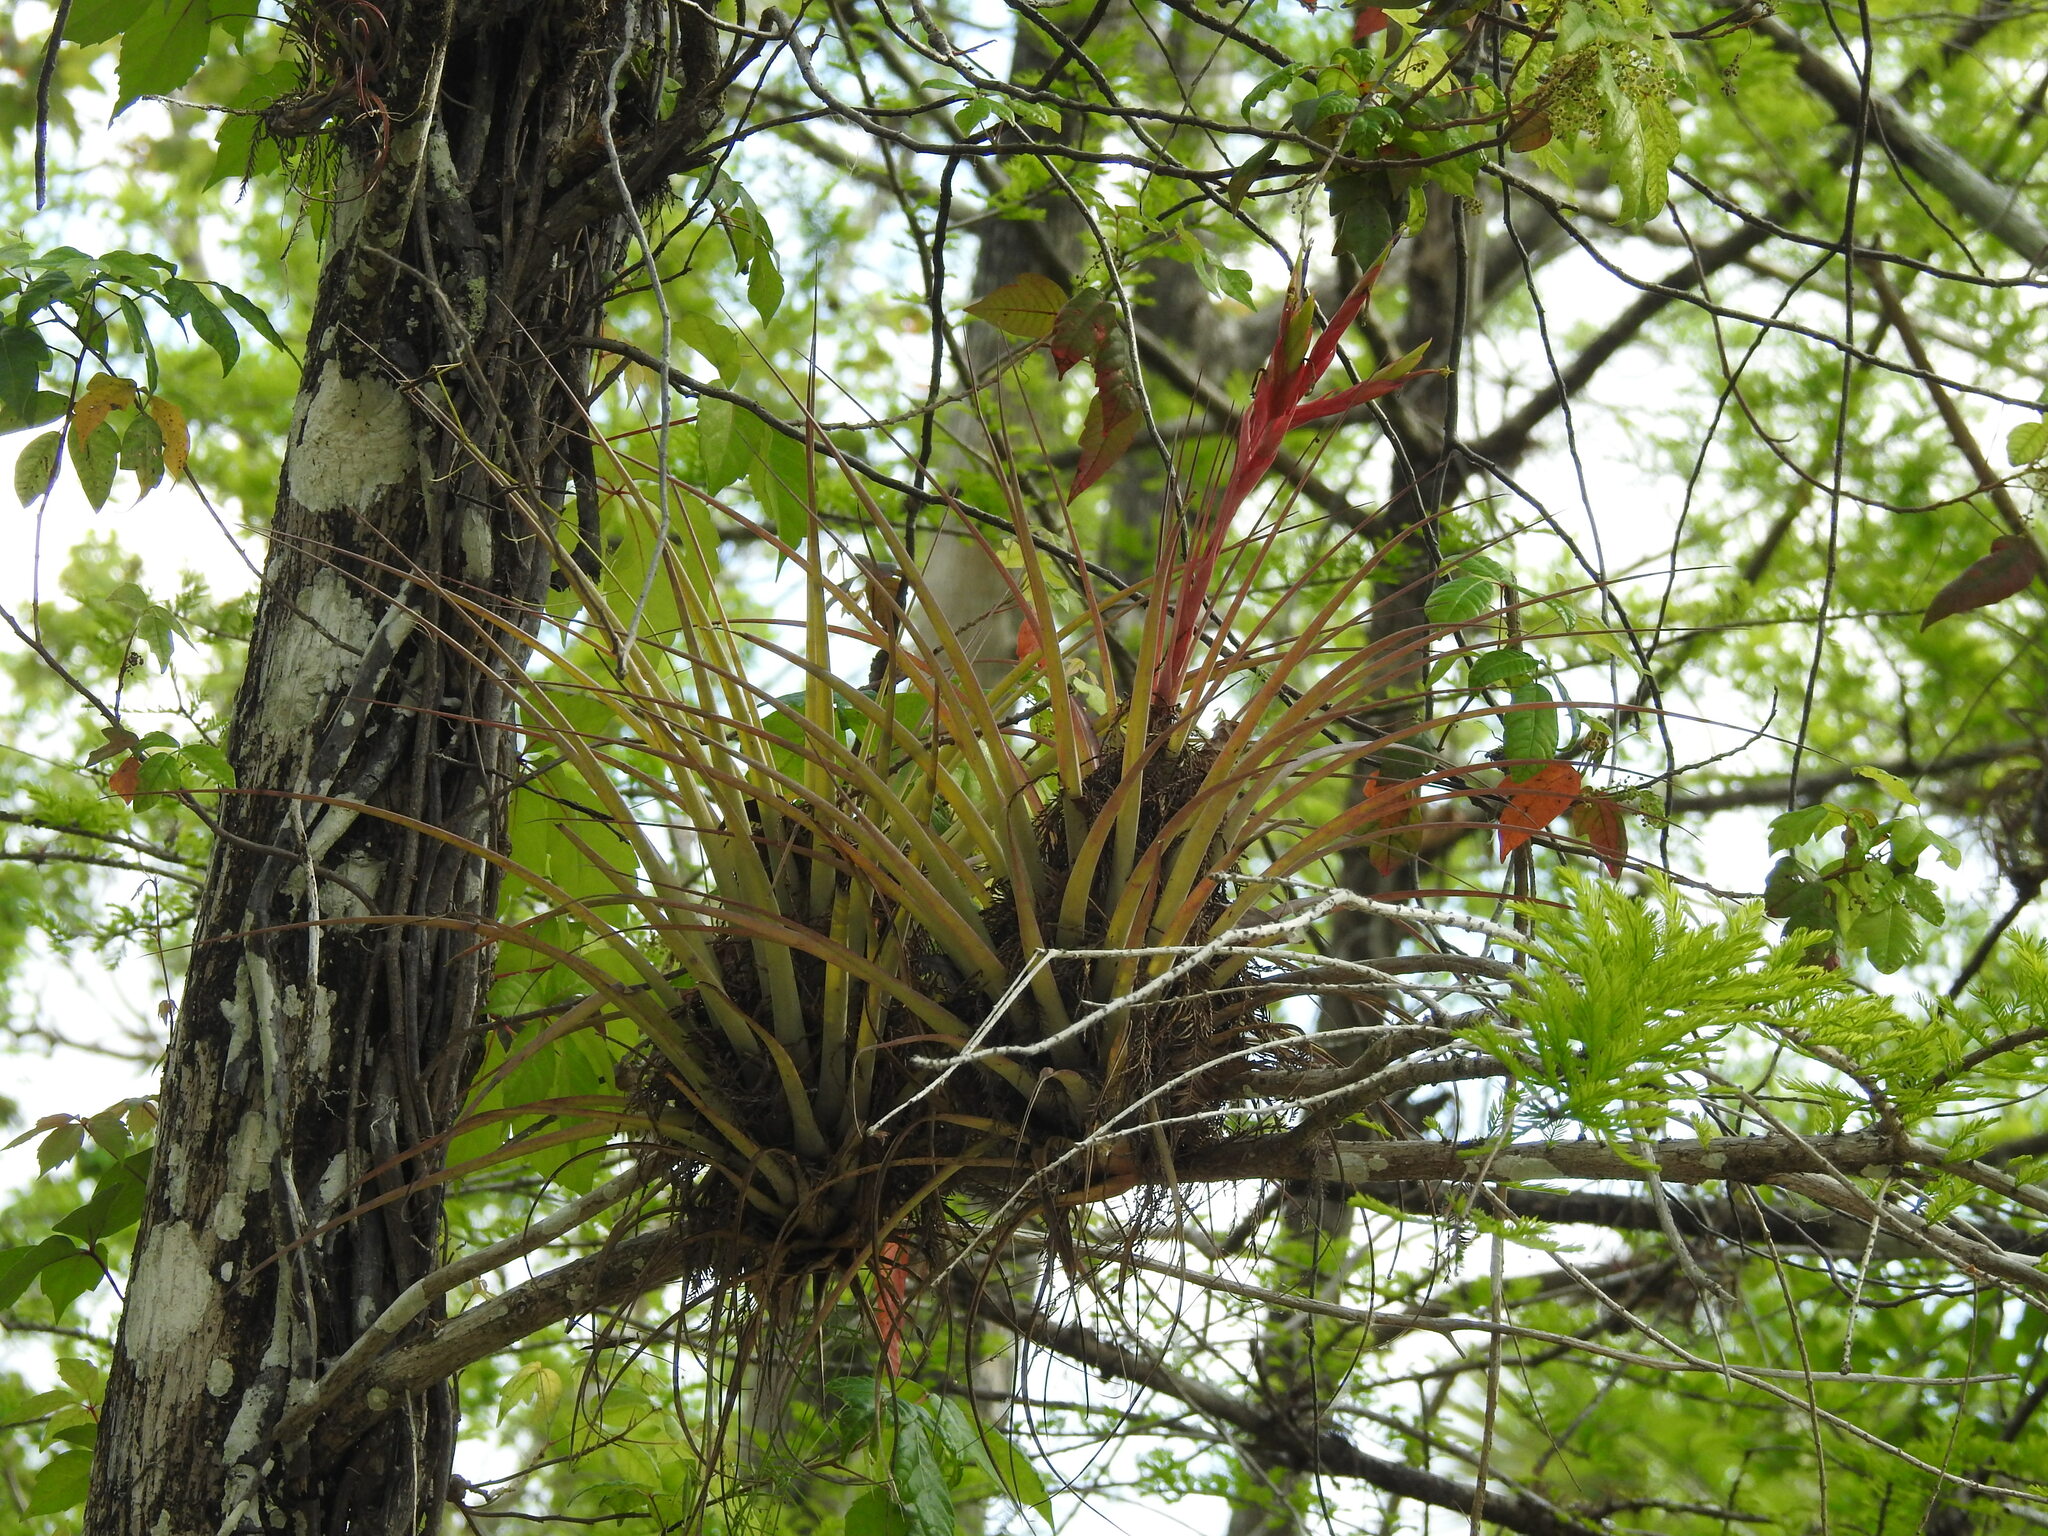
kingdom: Plantae
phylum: Tracheophyta
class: Liliopsida
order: Poales
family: Bromeliaceae
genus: Tillandsia
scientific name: Tillandsia fasciculata
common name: Giant airplant
